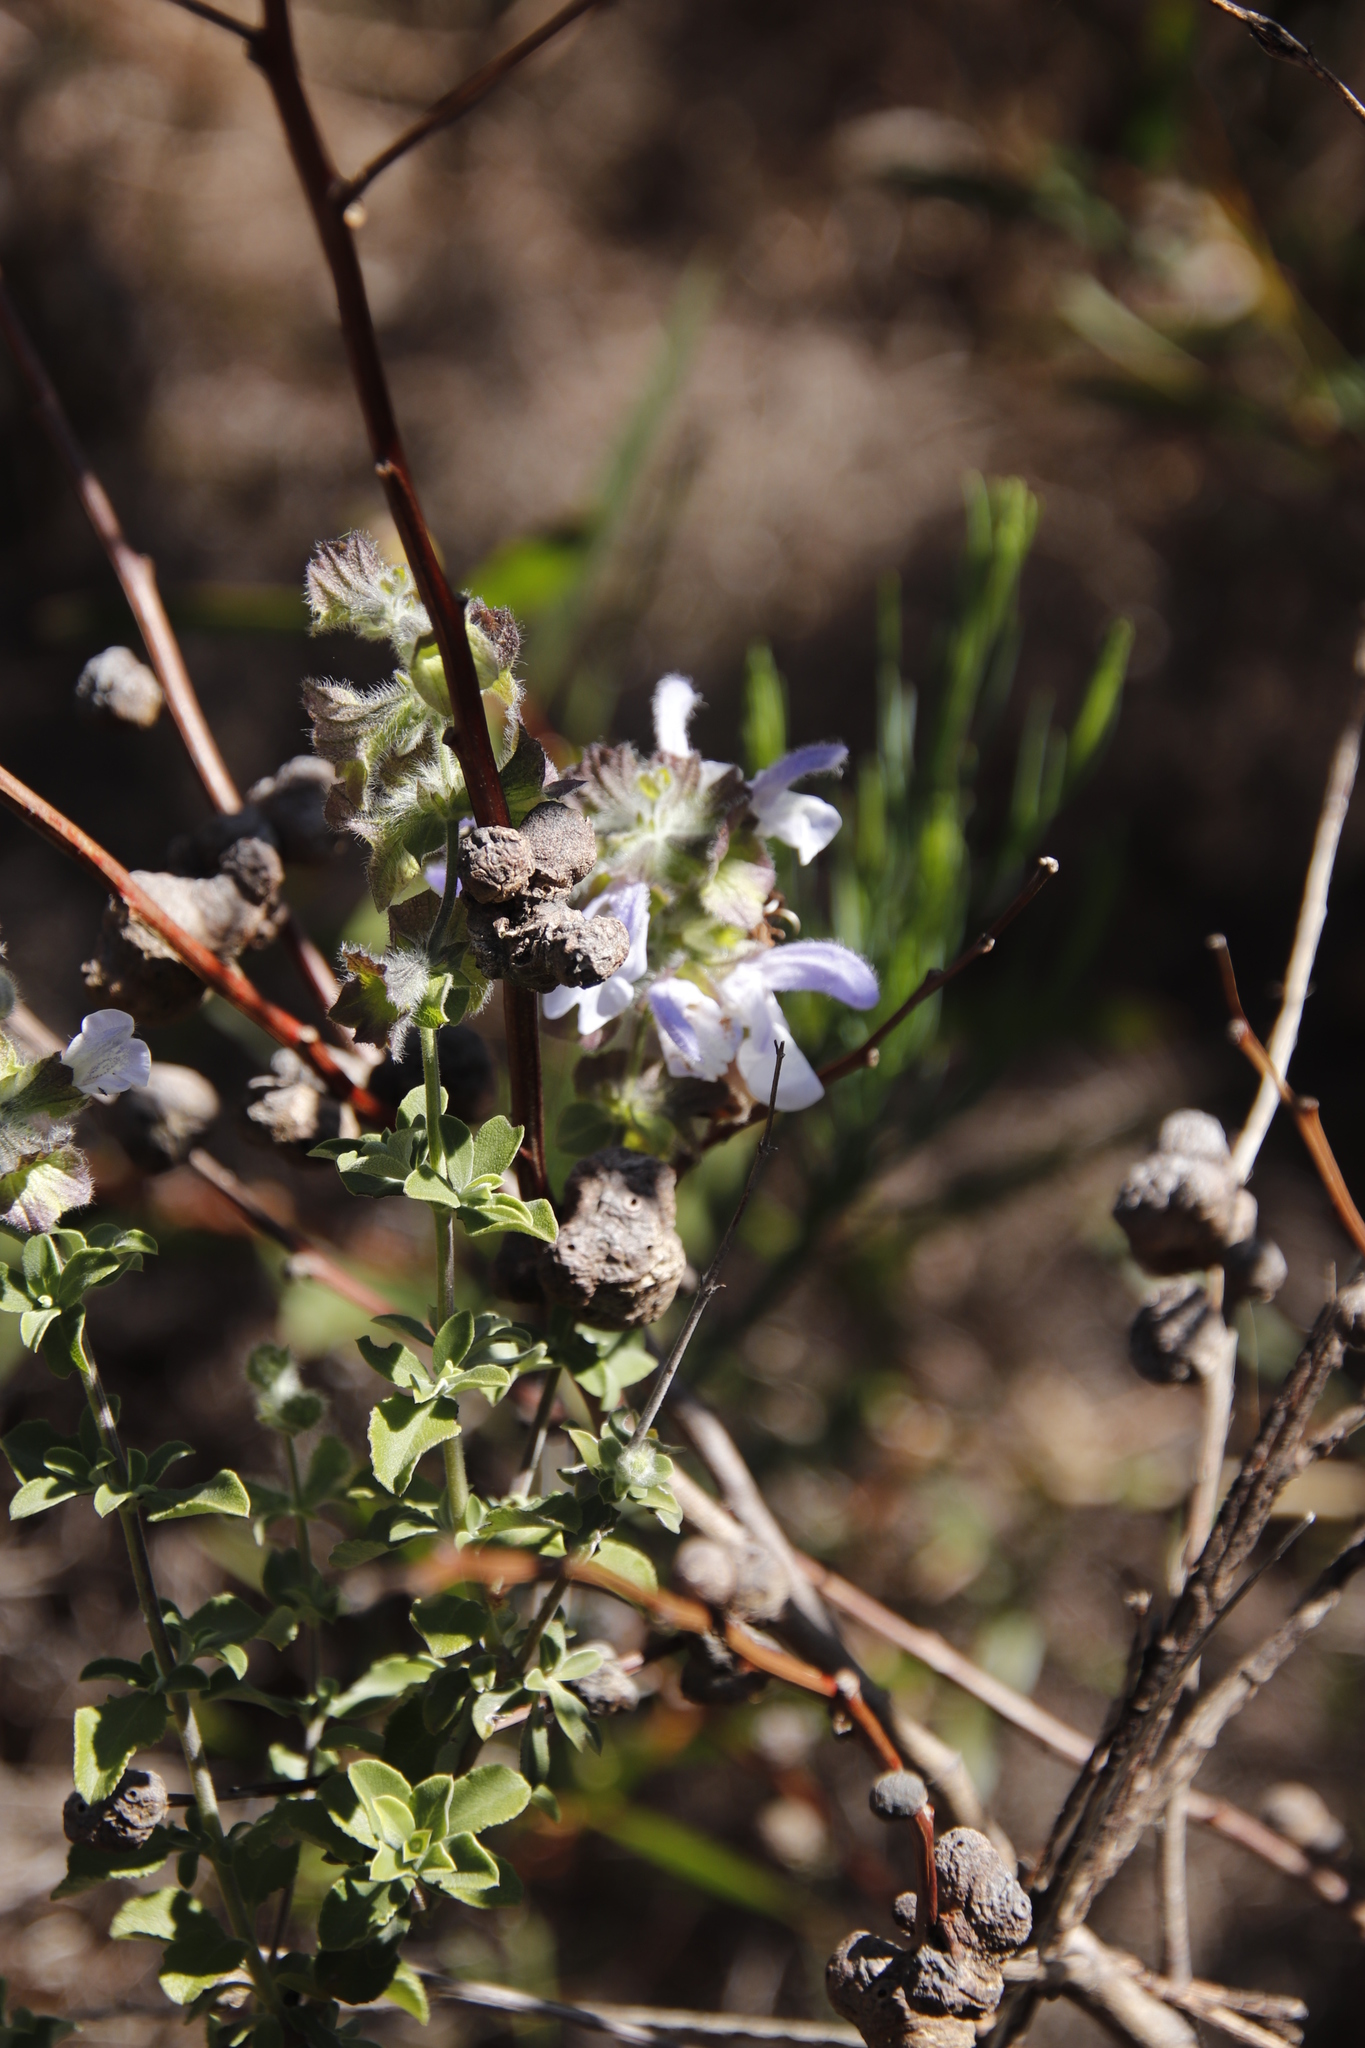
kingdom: Plantae
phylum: Tracheophyta
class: Magnoliopsida
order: Lamiales
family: Lamiaceae
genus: Salvia
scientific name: Salvia africana
